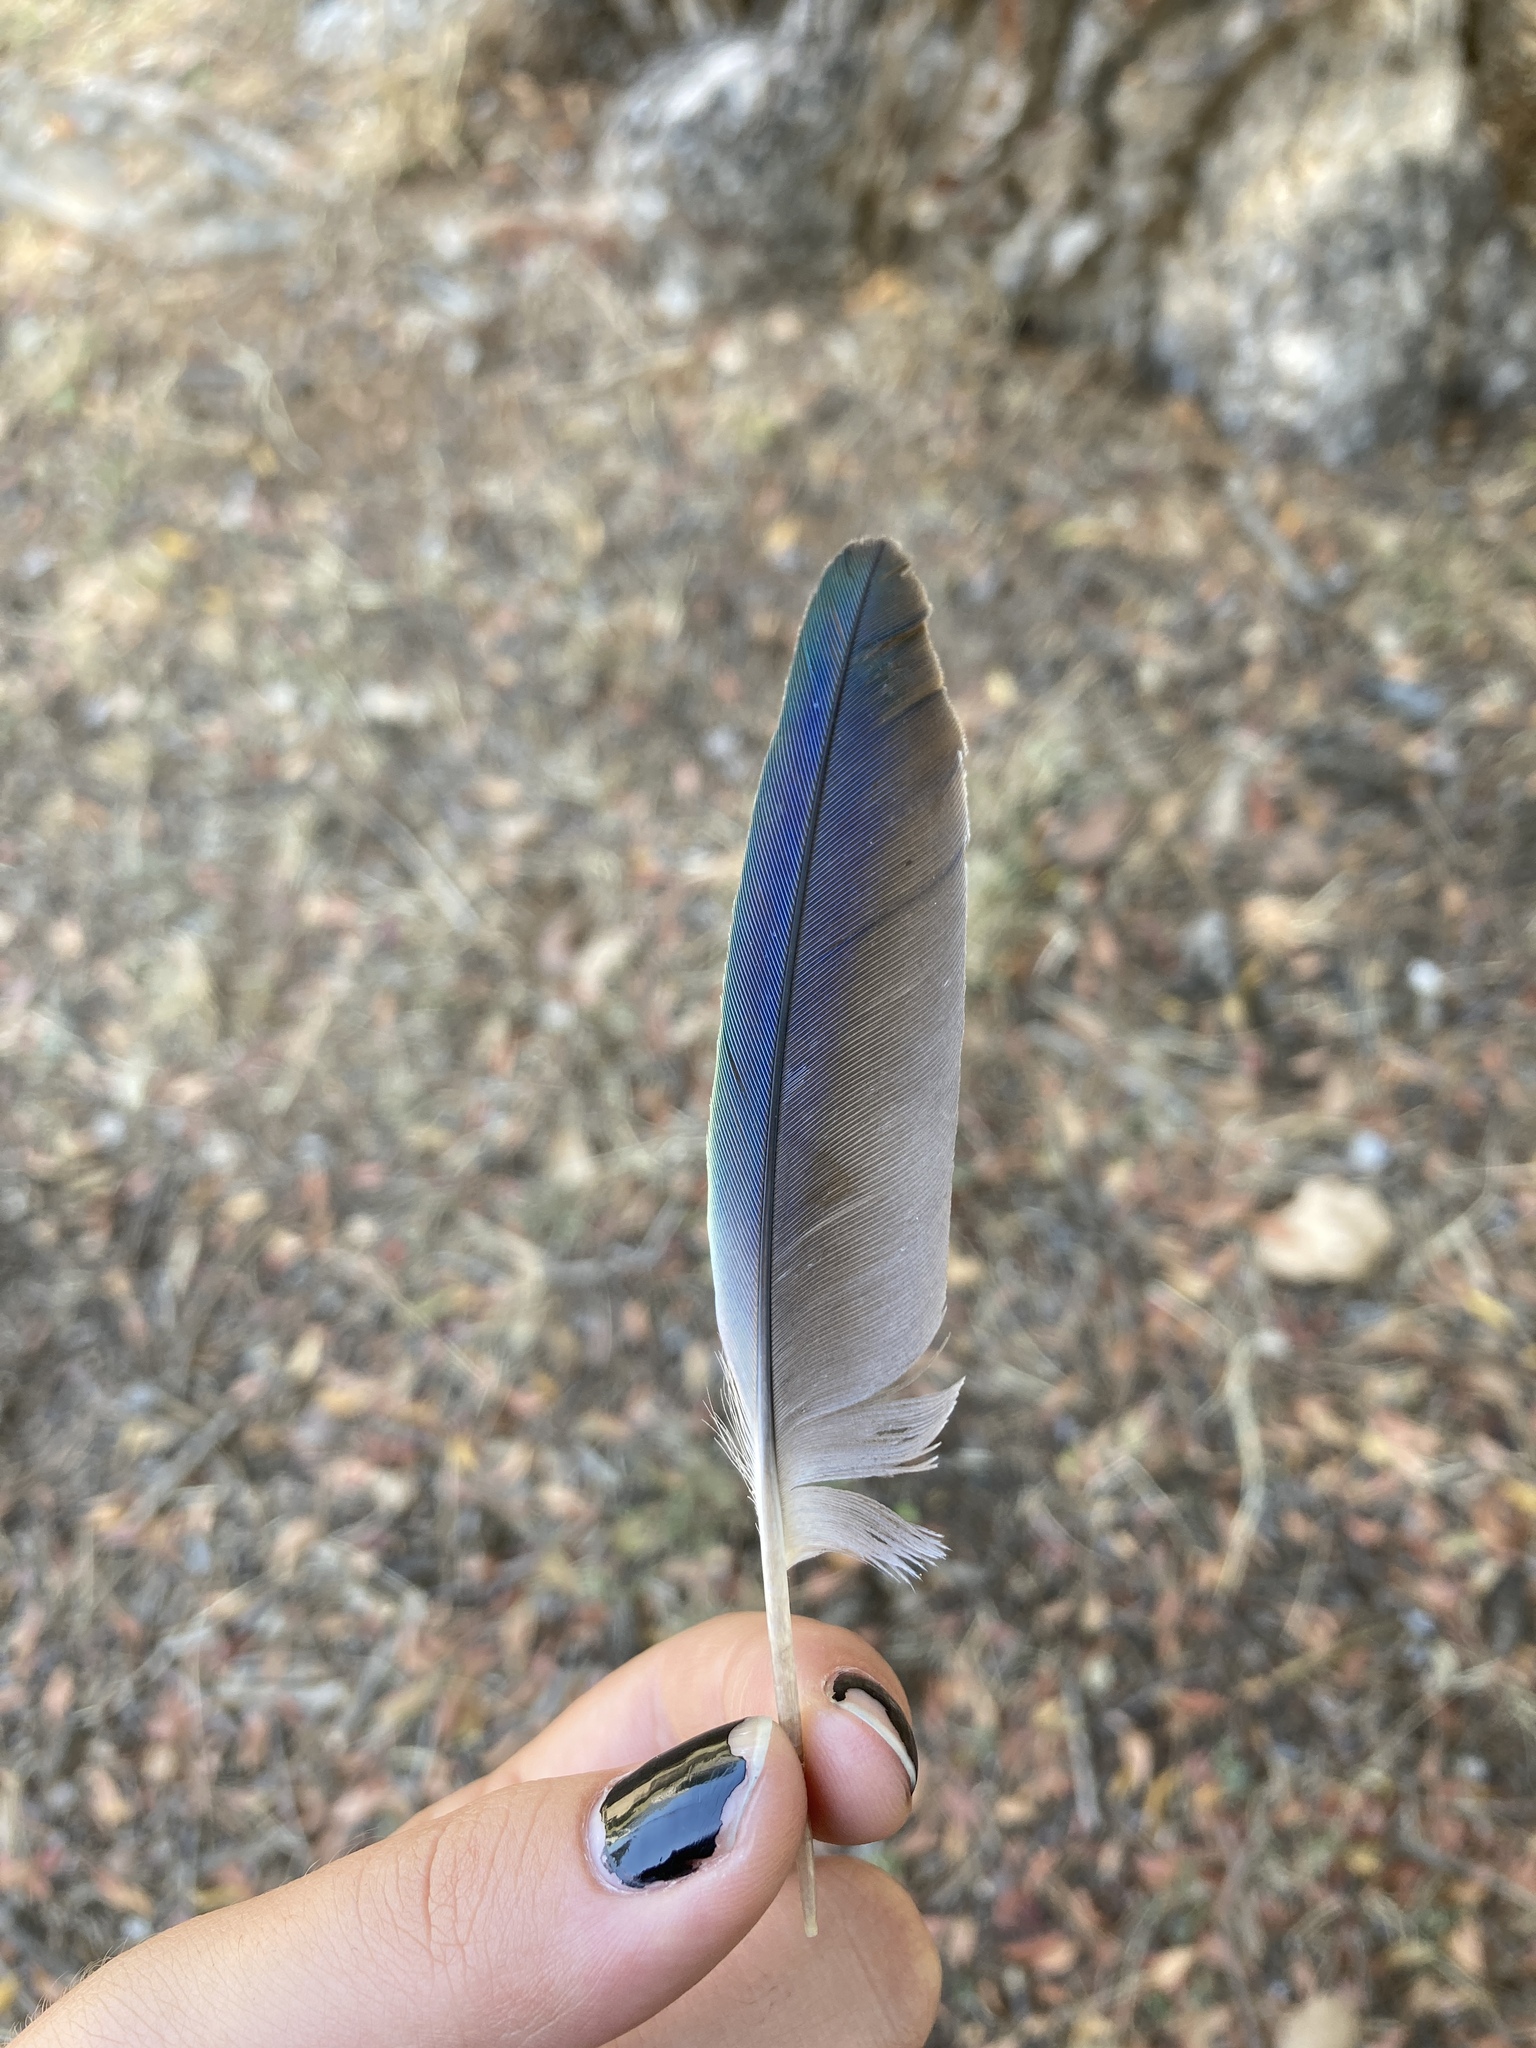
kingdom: Animalia
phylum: Chordata
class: Aves
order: Psittaciformes
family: Psittacidae
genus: Myiopsitta
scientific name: Myiopsitta monachus
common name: Monk parakeet
